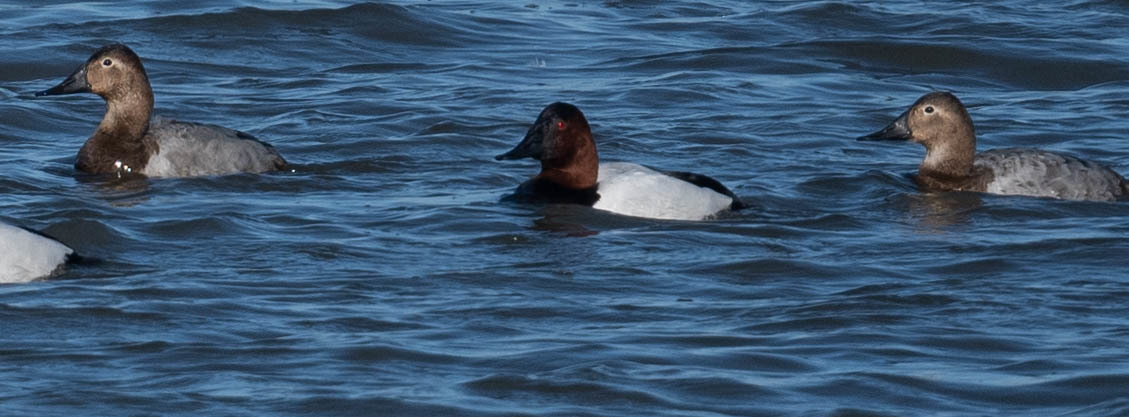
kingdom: Animalia
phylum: Chordata
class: Aves
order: Anseriformes
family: Anatidae
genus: Aythya
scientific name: Aythya valisineria
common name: Canvasback
